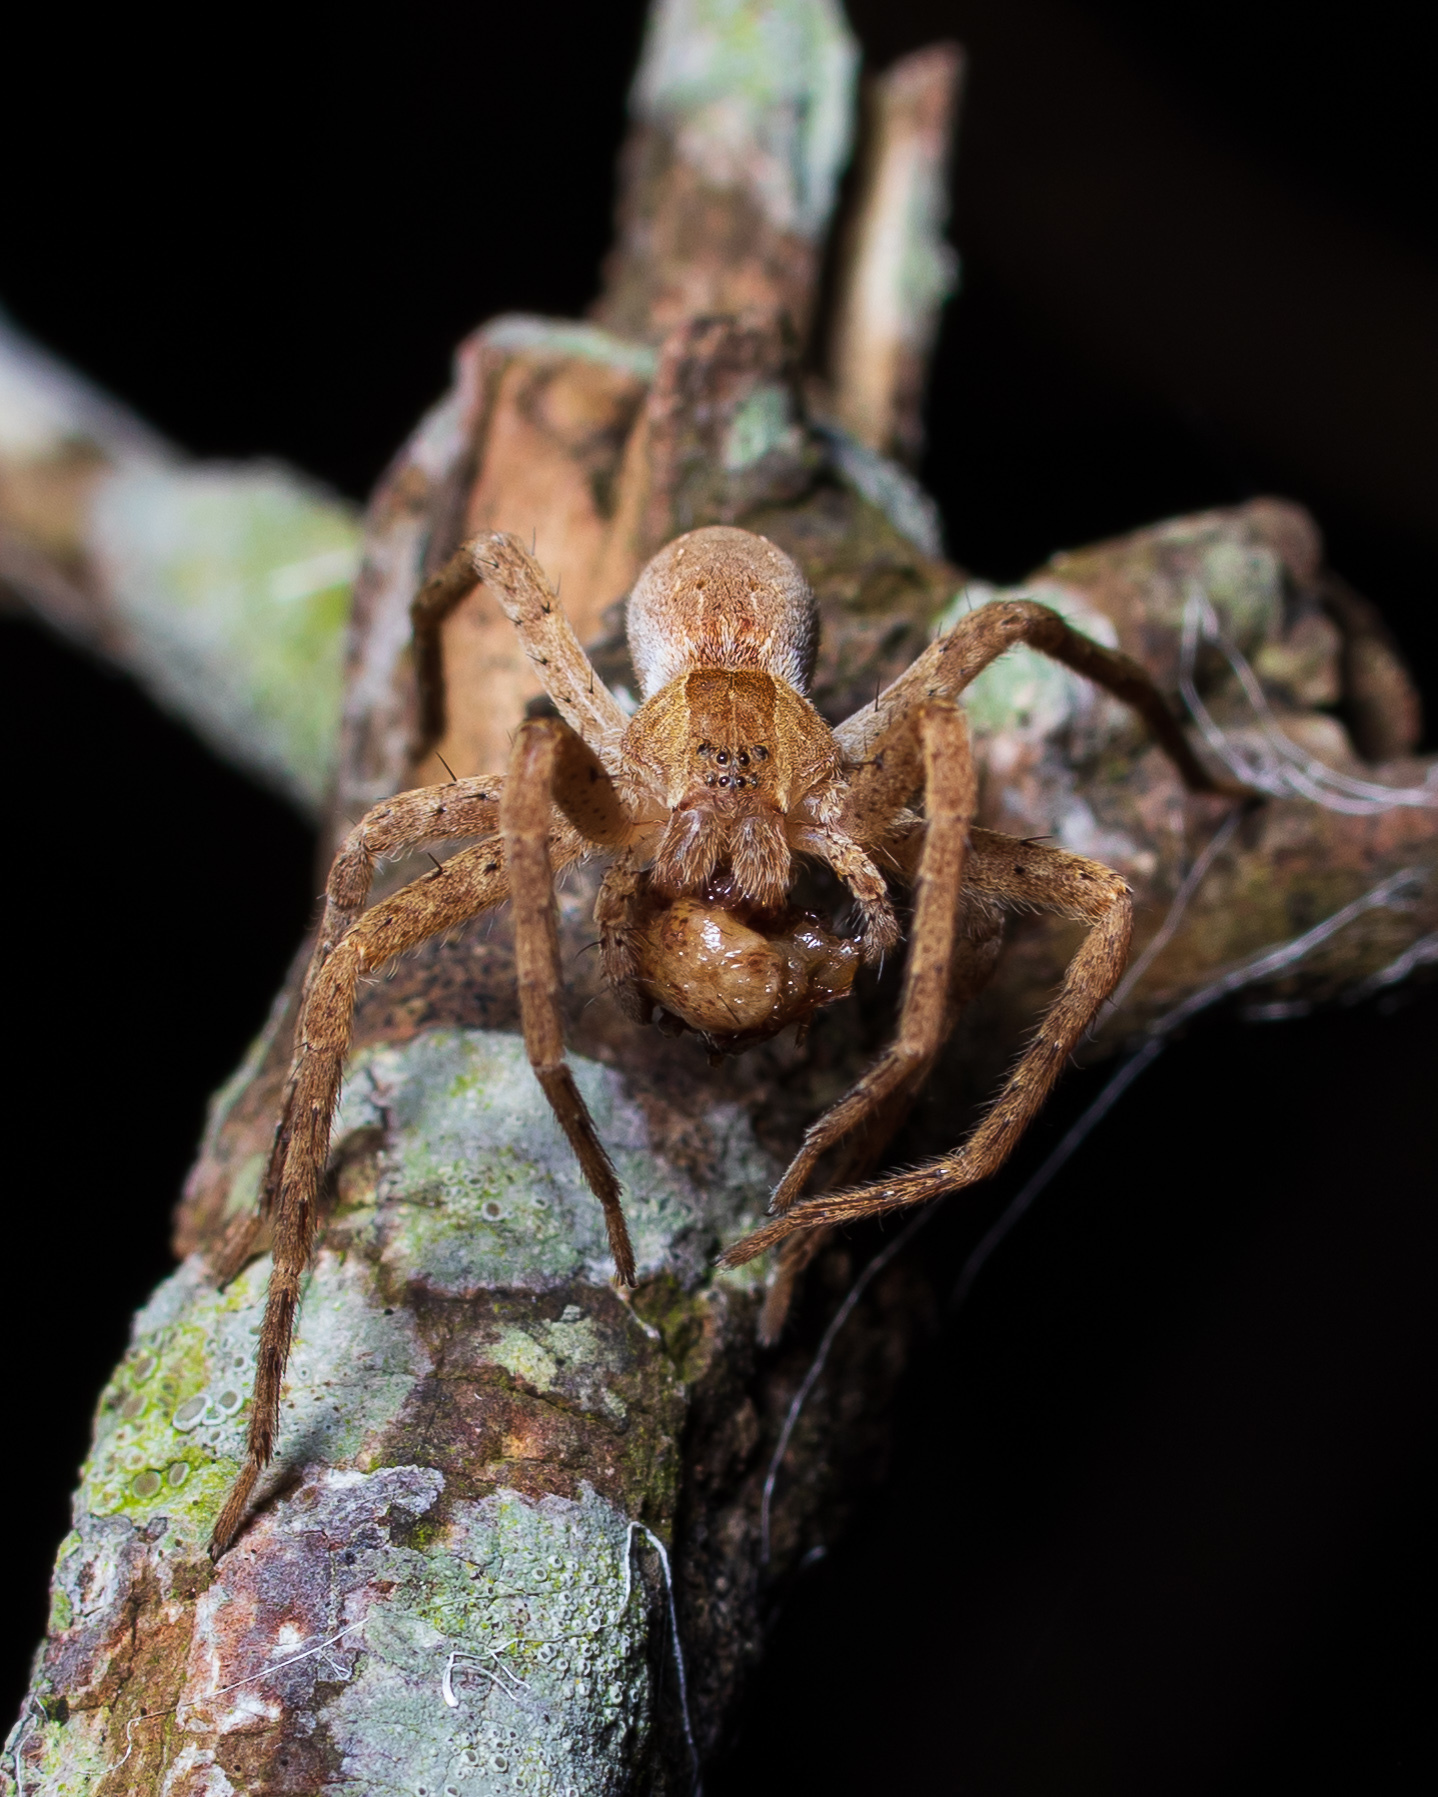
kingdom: Animalia
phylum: Arthropoda
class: Arachnida
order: Araneae
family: Pisauridae
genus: Pisaurina
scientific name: Pisaurina mira
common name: American nursery web spider
